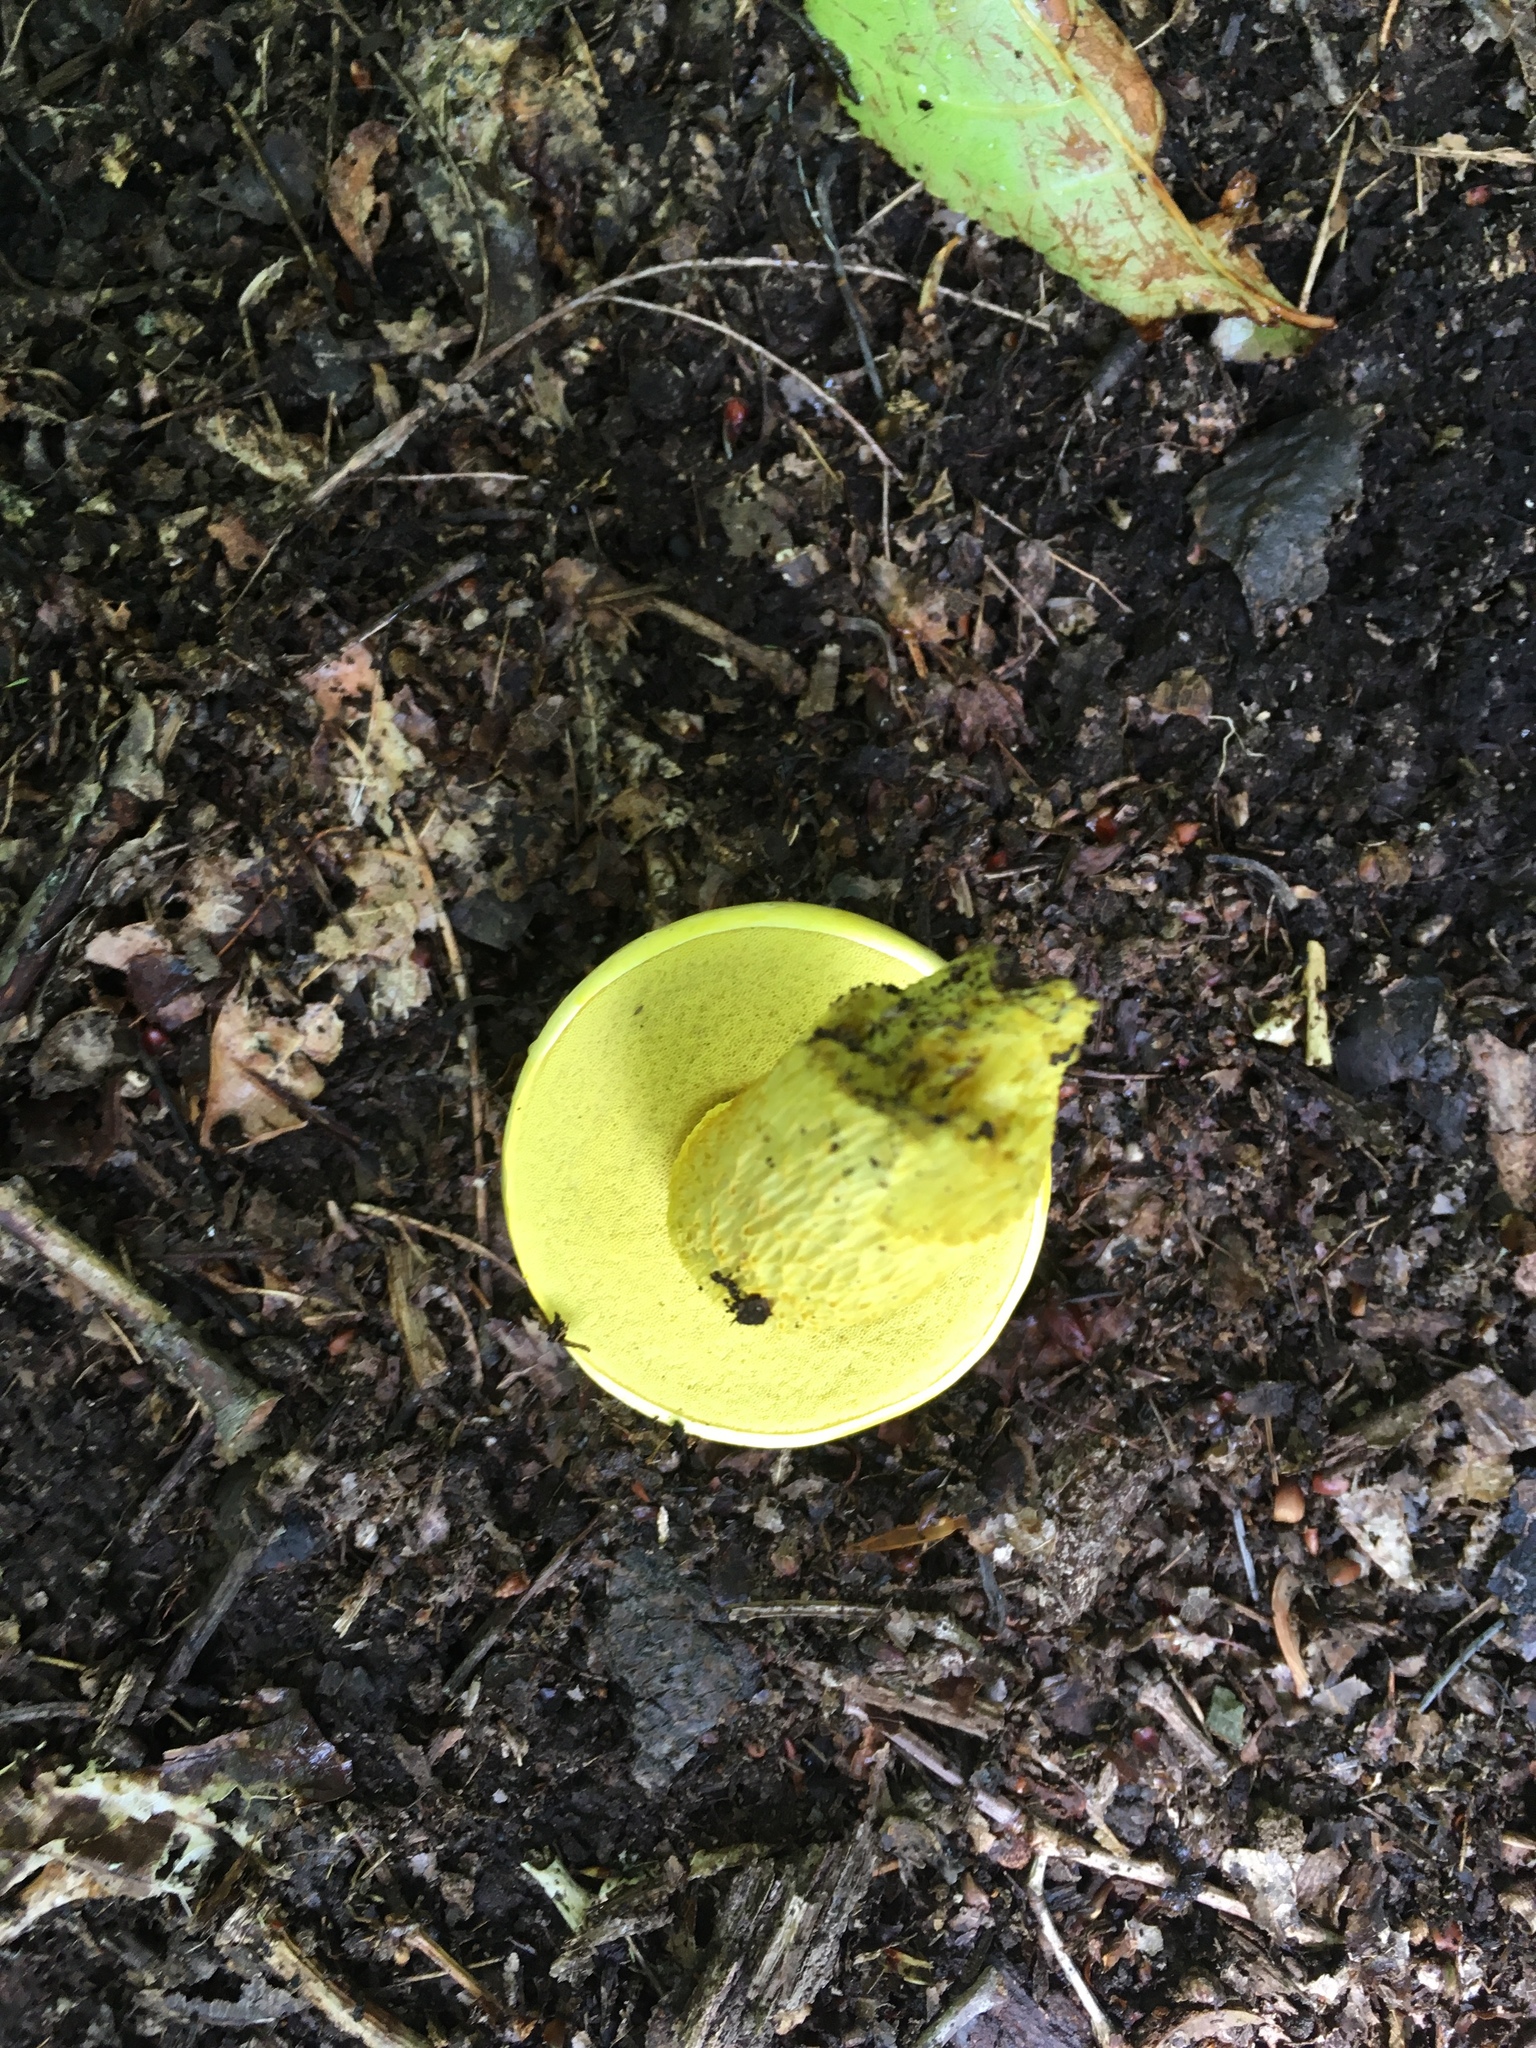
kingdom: Fungi
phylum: Basidiomycota
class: Agaricomycetes
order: Boletales
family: Boletaceae
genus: Retiboletus
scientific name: Retiboletus ornatipes
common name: Ornate-stalked bolete
